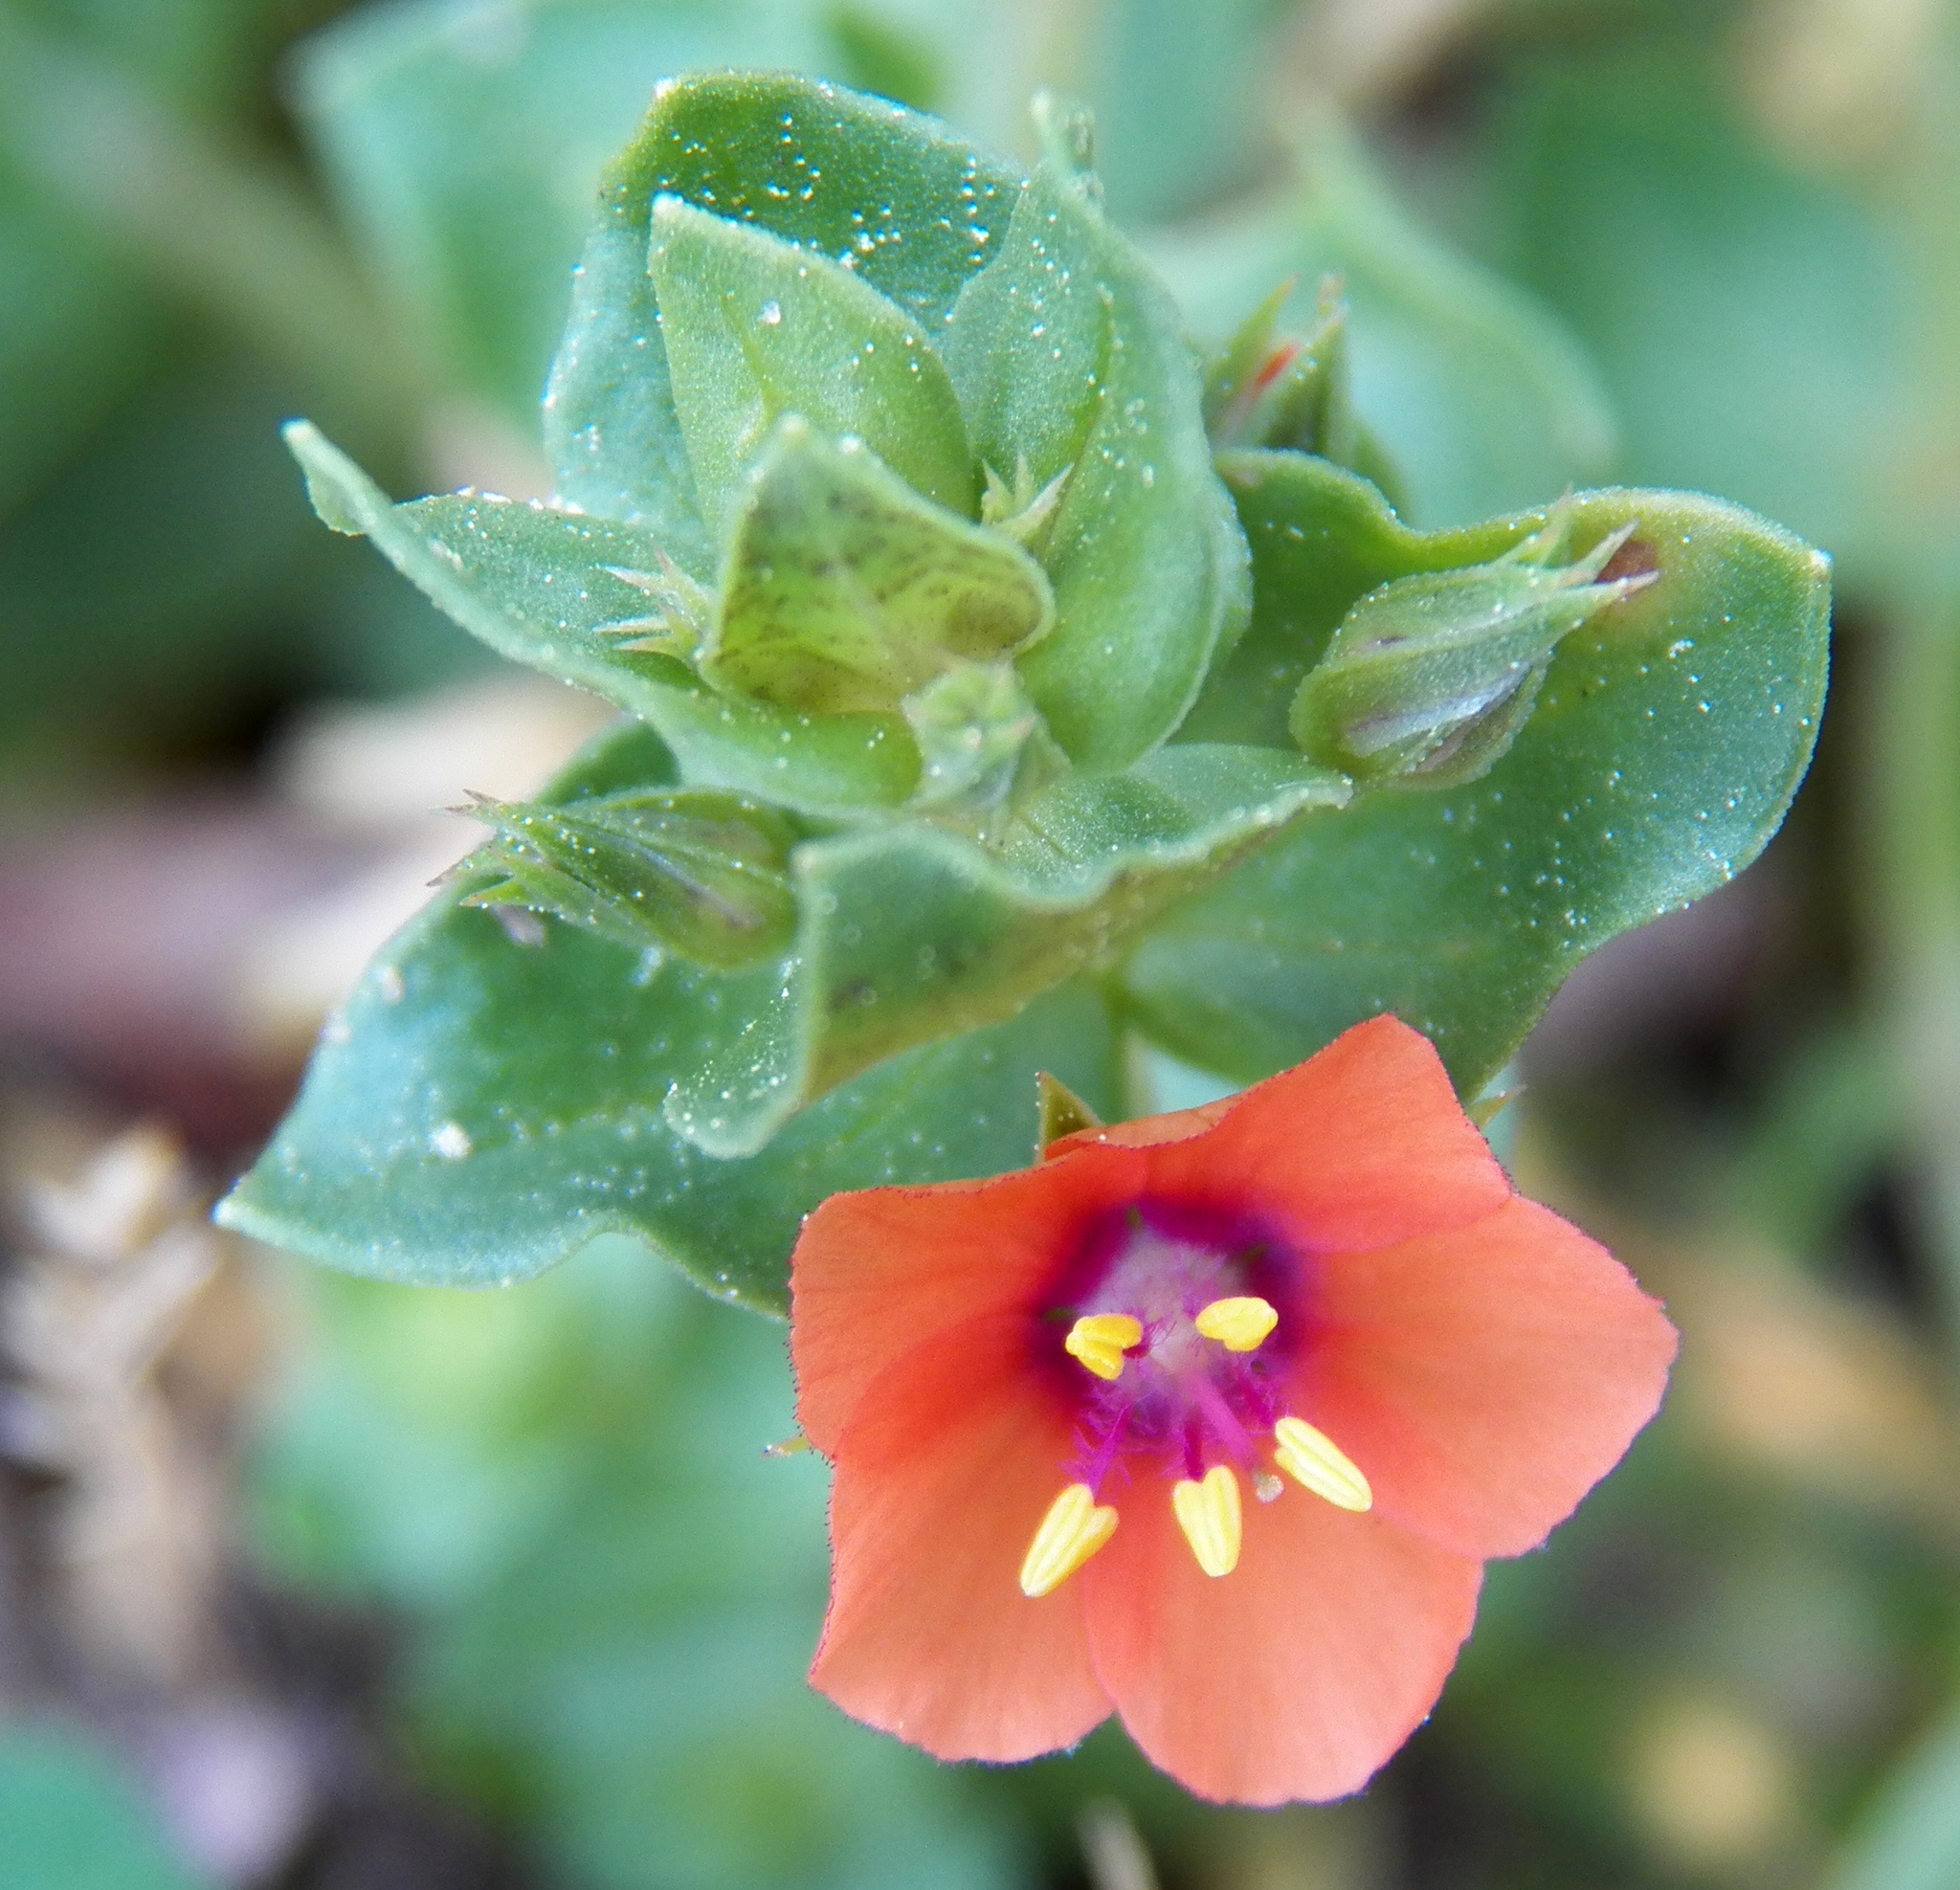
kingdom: Plantae
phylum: Tracheophyta
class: Magnoliopsida
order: Ericales
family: Primulaceae
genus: Lysimachia
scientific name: Lysimachia arvensis
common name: Scarlet pimpernel
